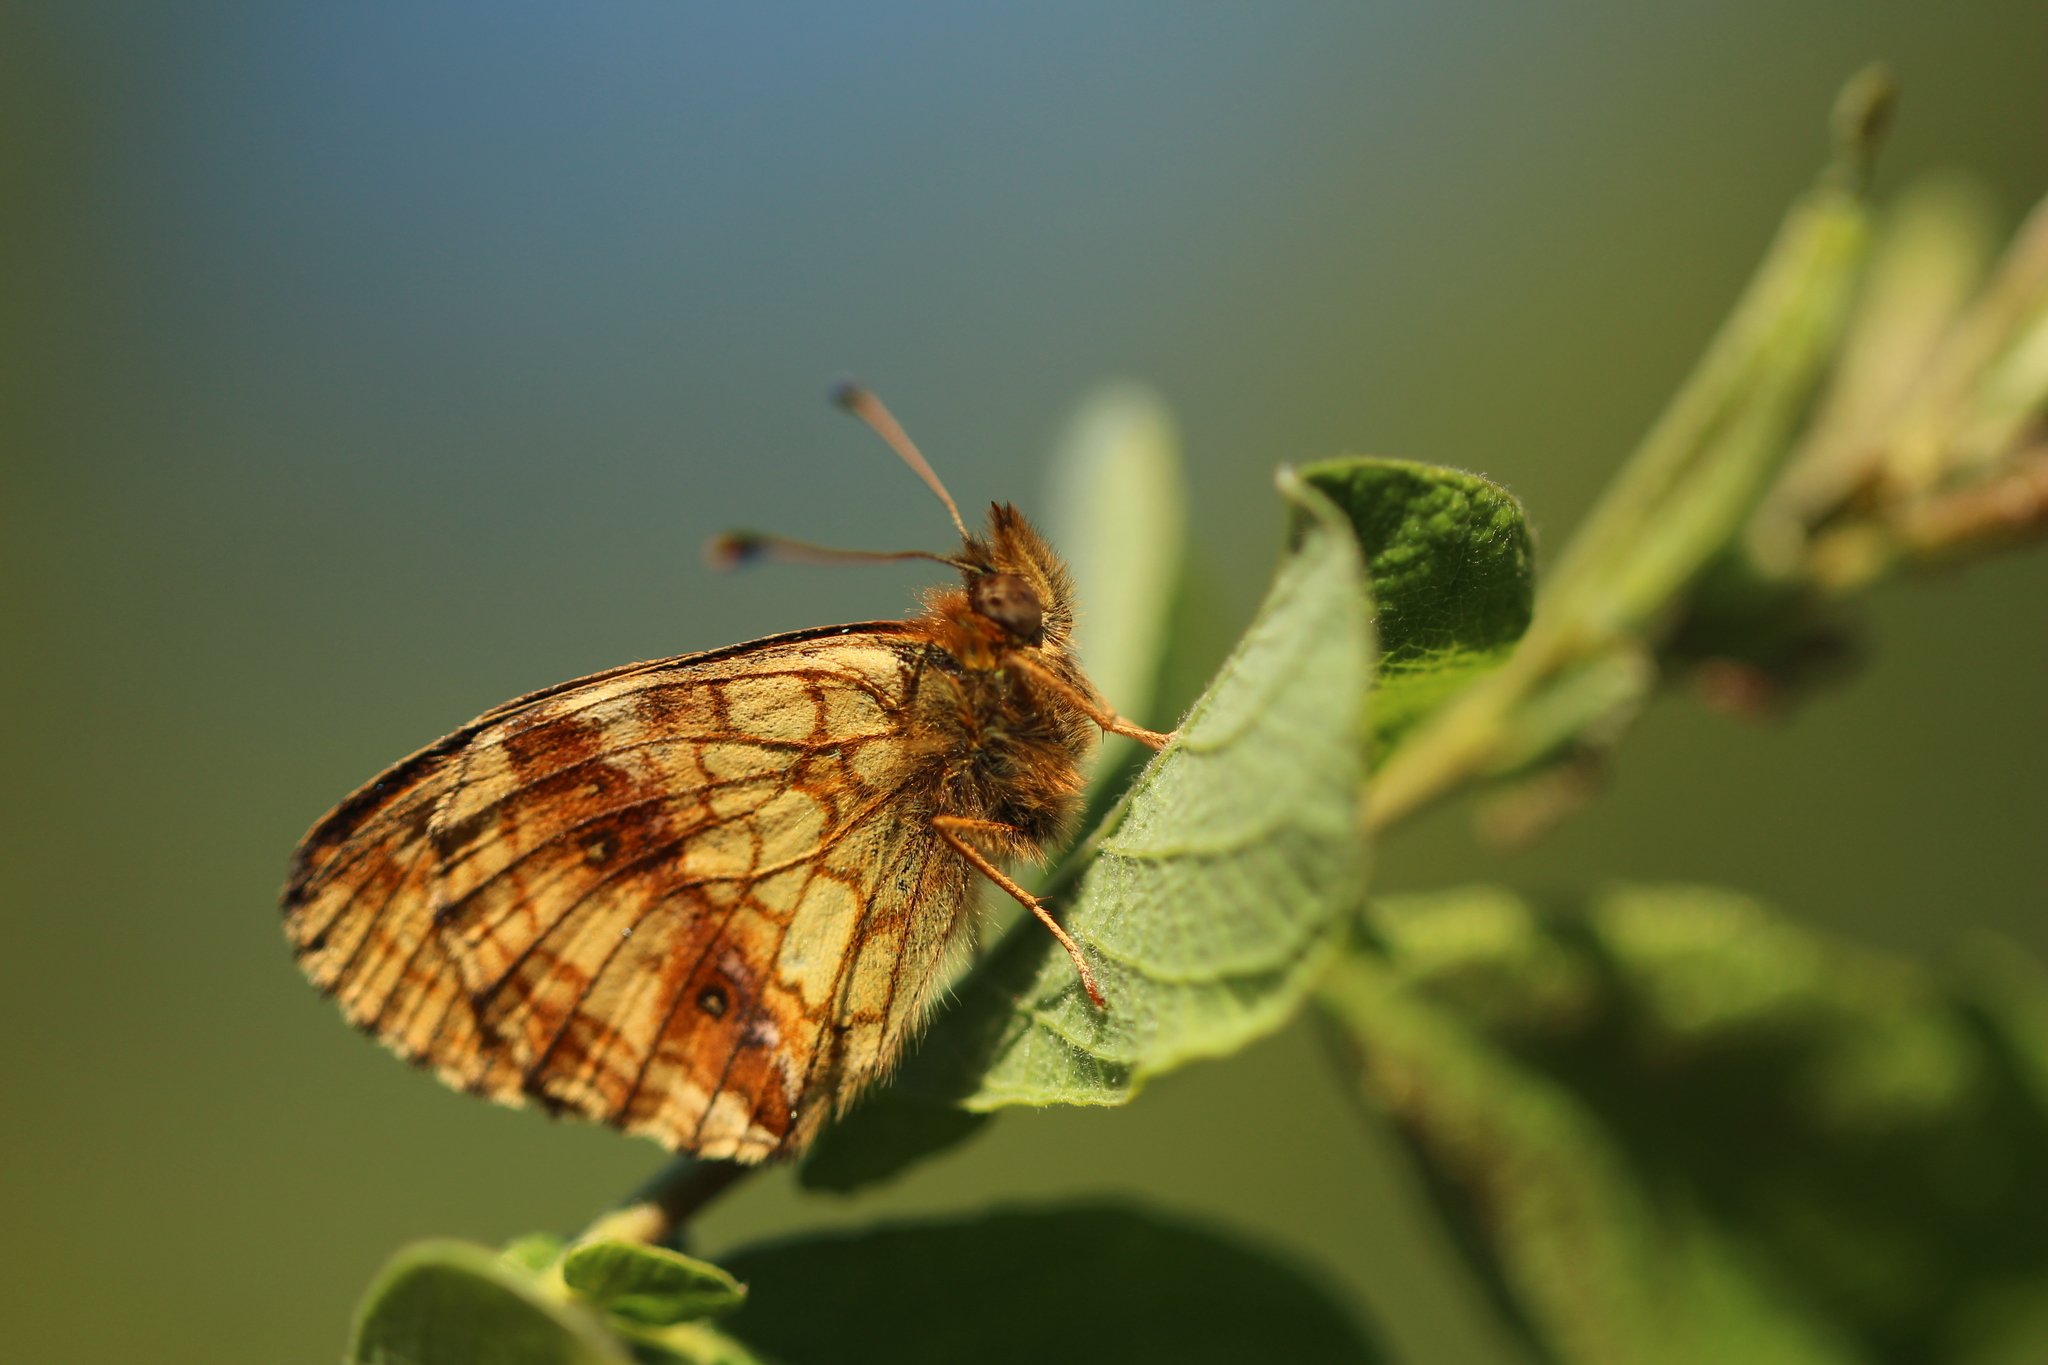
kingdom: Animalia
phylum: Arthropoda
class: Insecta
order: Lepidoptera
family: Nymphalidae
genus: Brenthis
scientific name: Brenthis ino
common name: Lesser marbled fritillary
